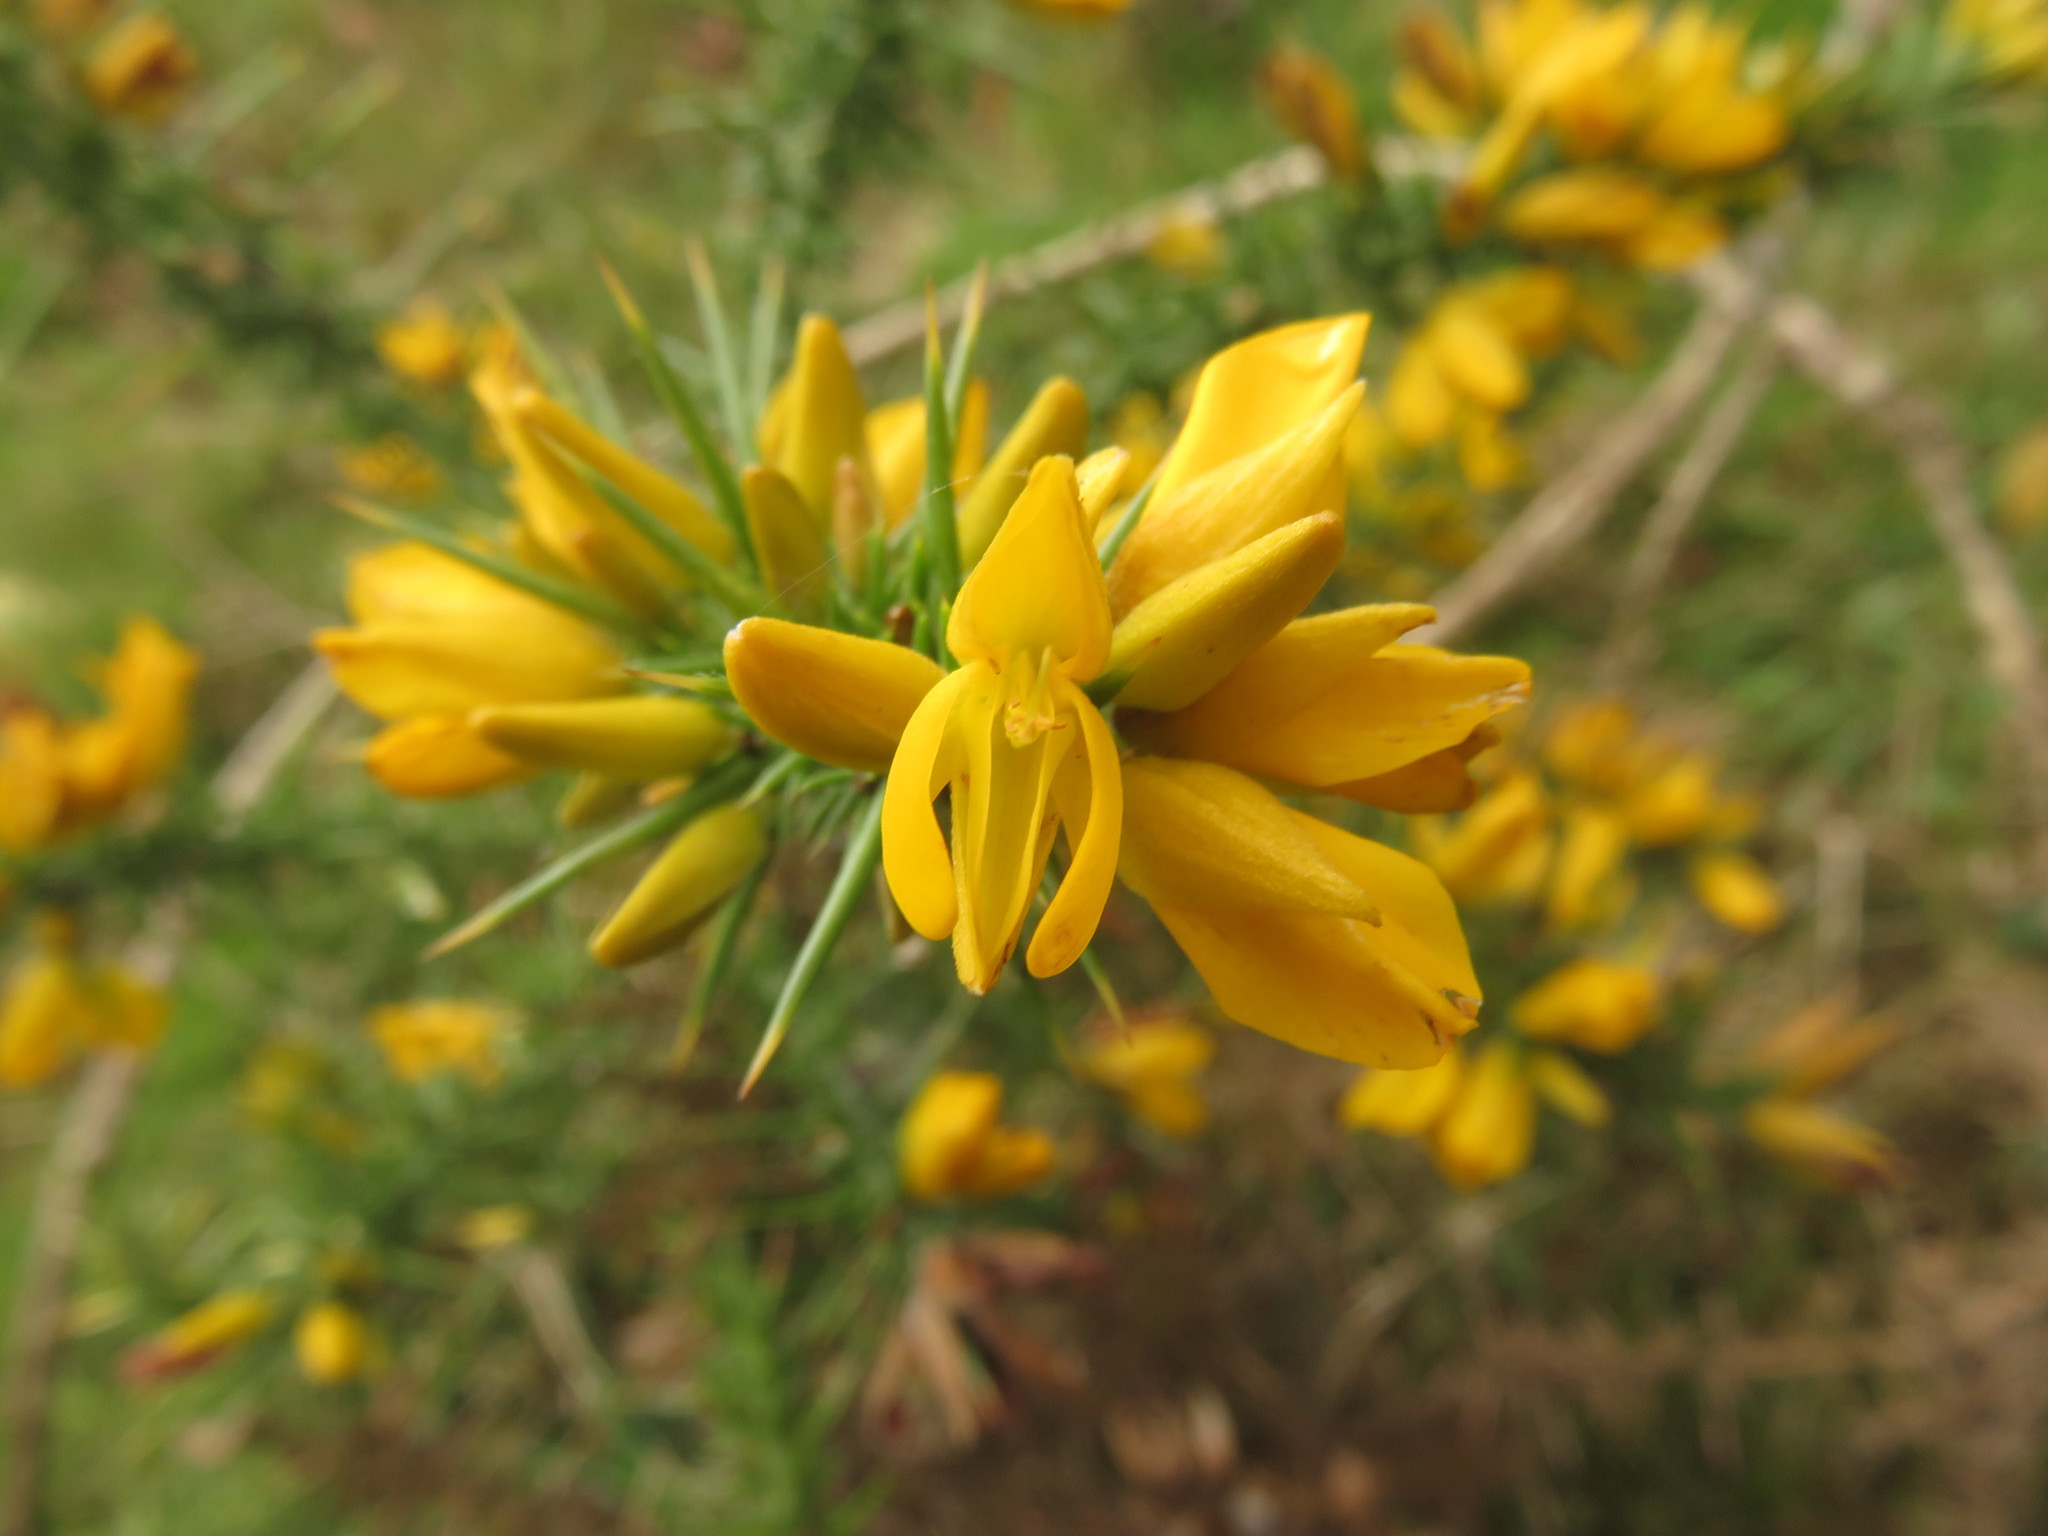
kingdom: Plantae
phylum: Tracheophyta
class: Magnoliopsida
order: Fabales
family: Fabaceae
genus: Ulex
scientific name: Ulex europaeus
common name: Common gorse
